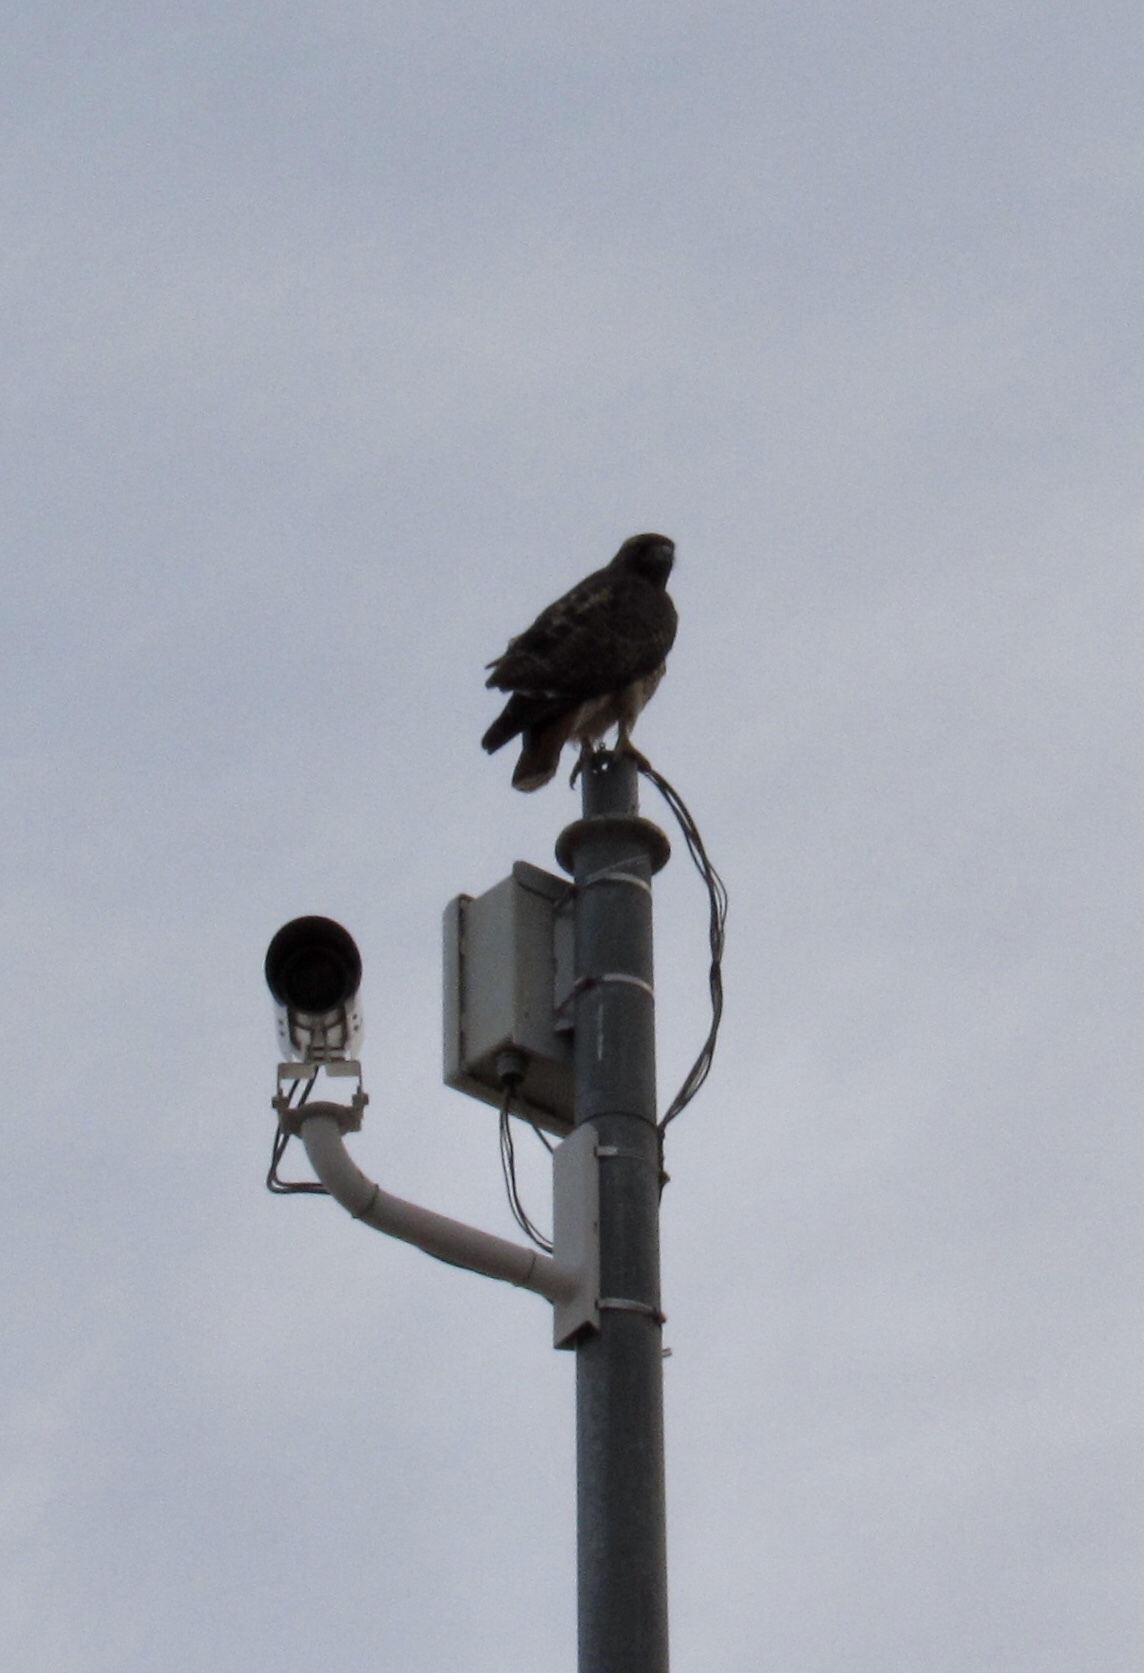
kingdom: Animalia
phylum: Chordata
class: Aves
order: Accipitriformes
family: Accipitridae
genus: Buteo
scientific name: Buteo jamaicensis
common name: Red-tailed hawk
